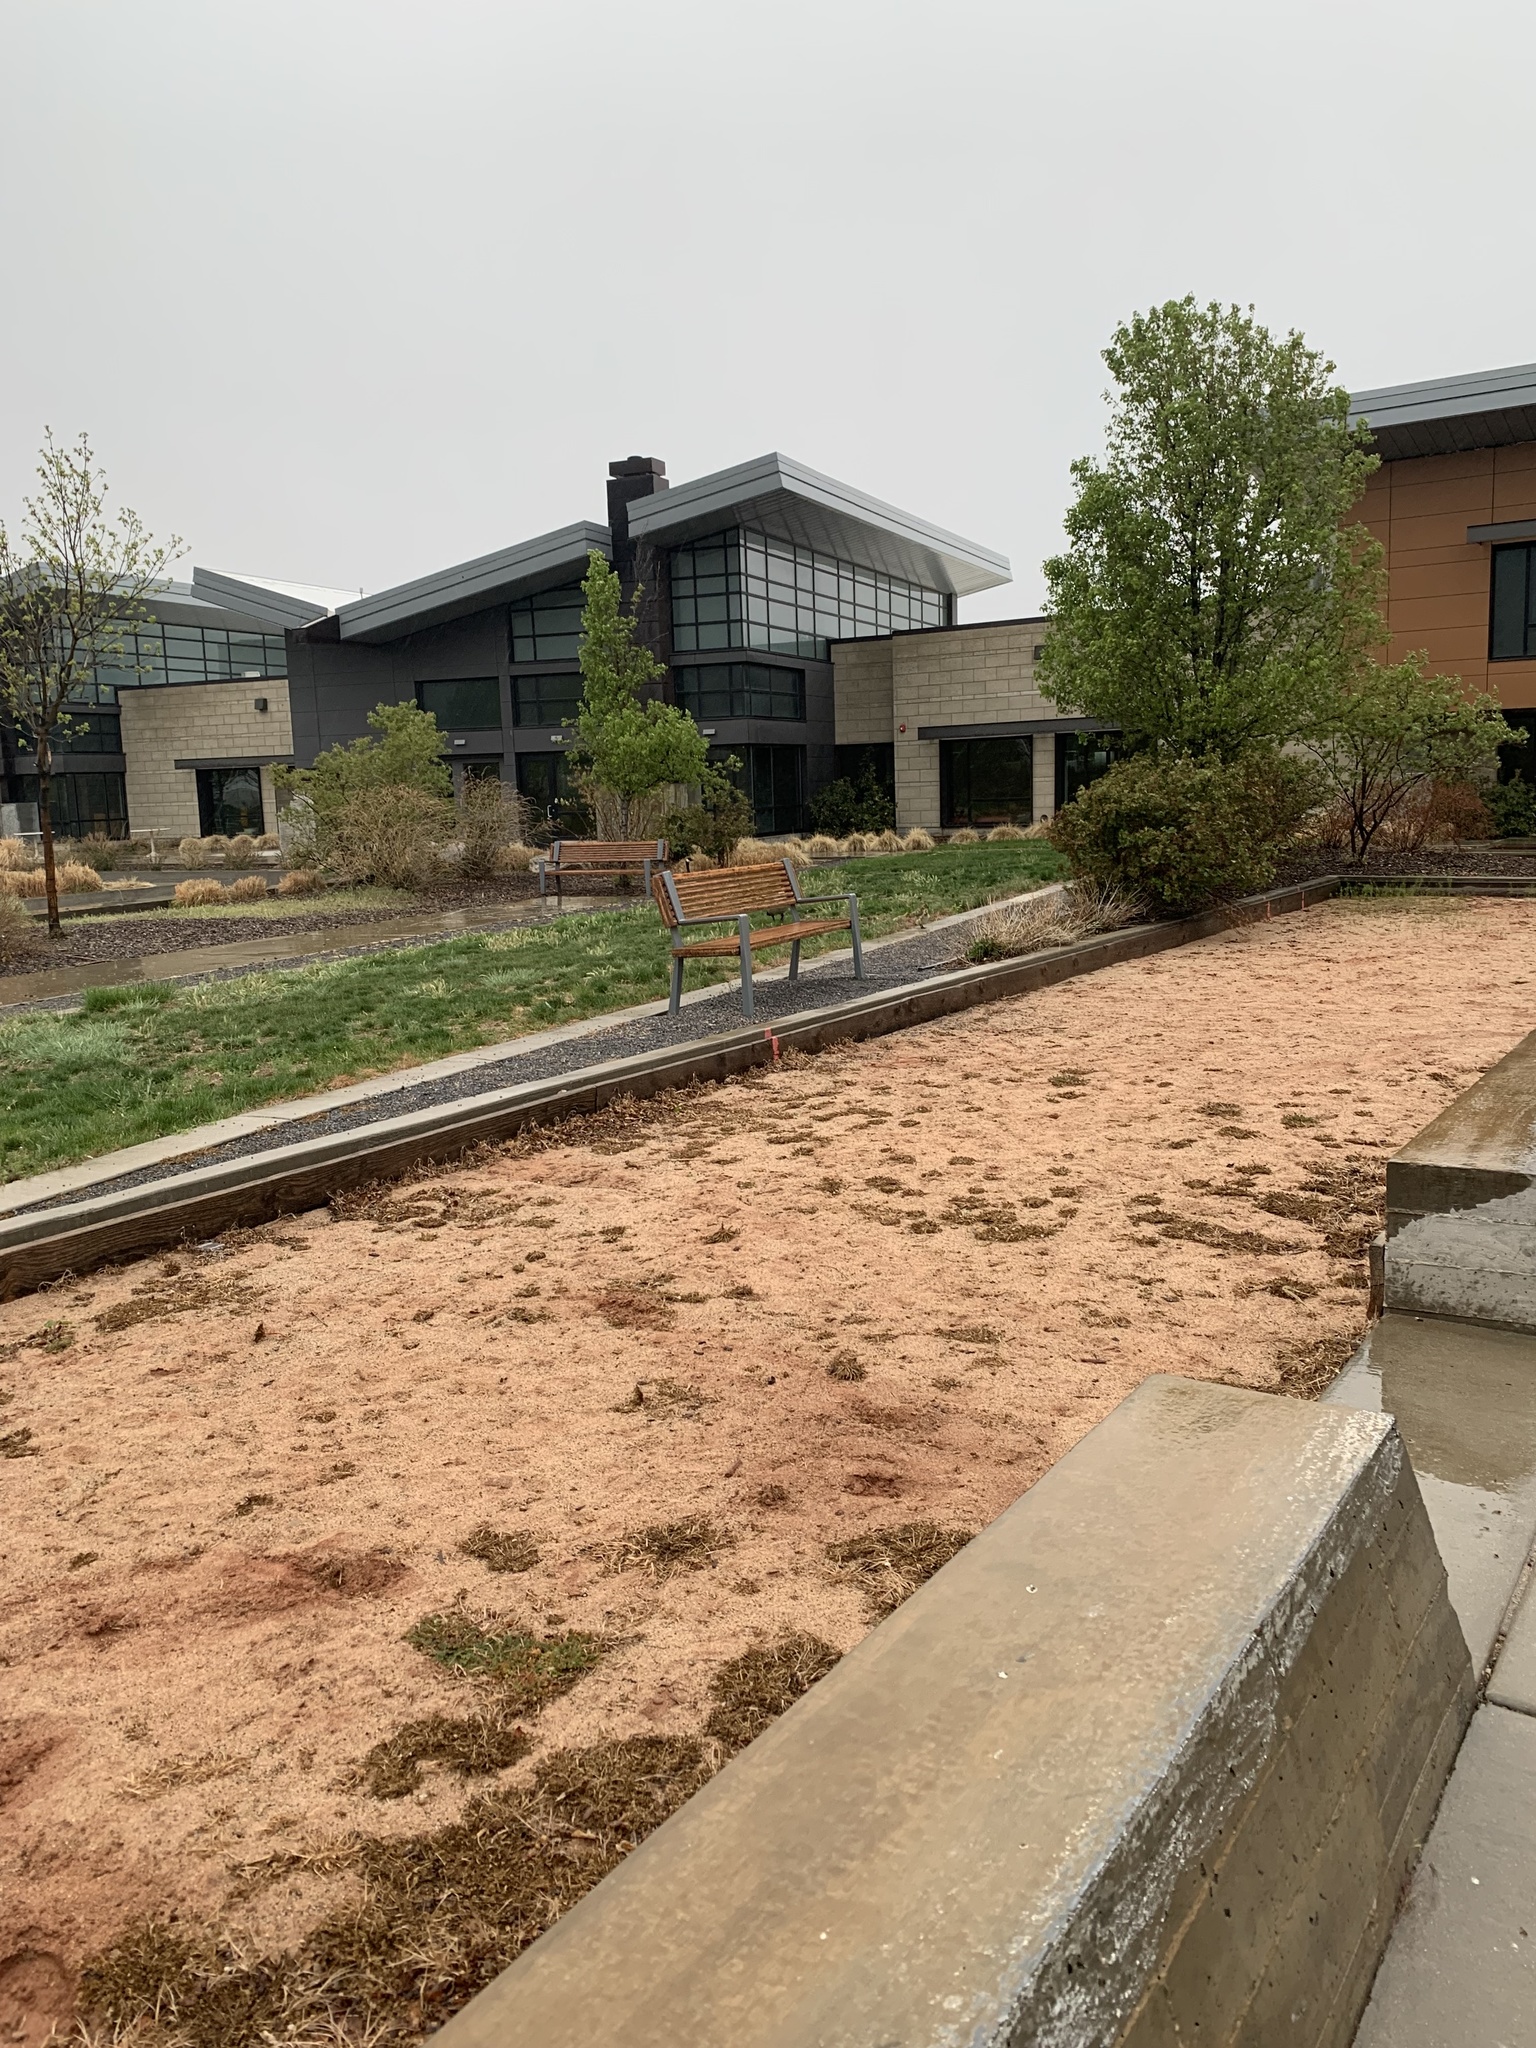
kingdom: Animalia
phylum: Chordata
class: Aves
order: Anseriformes
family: Anatidae
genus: Branta
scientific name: Branta canadensis
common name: Canada goose
